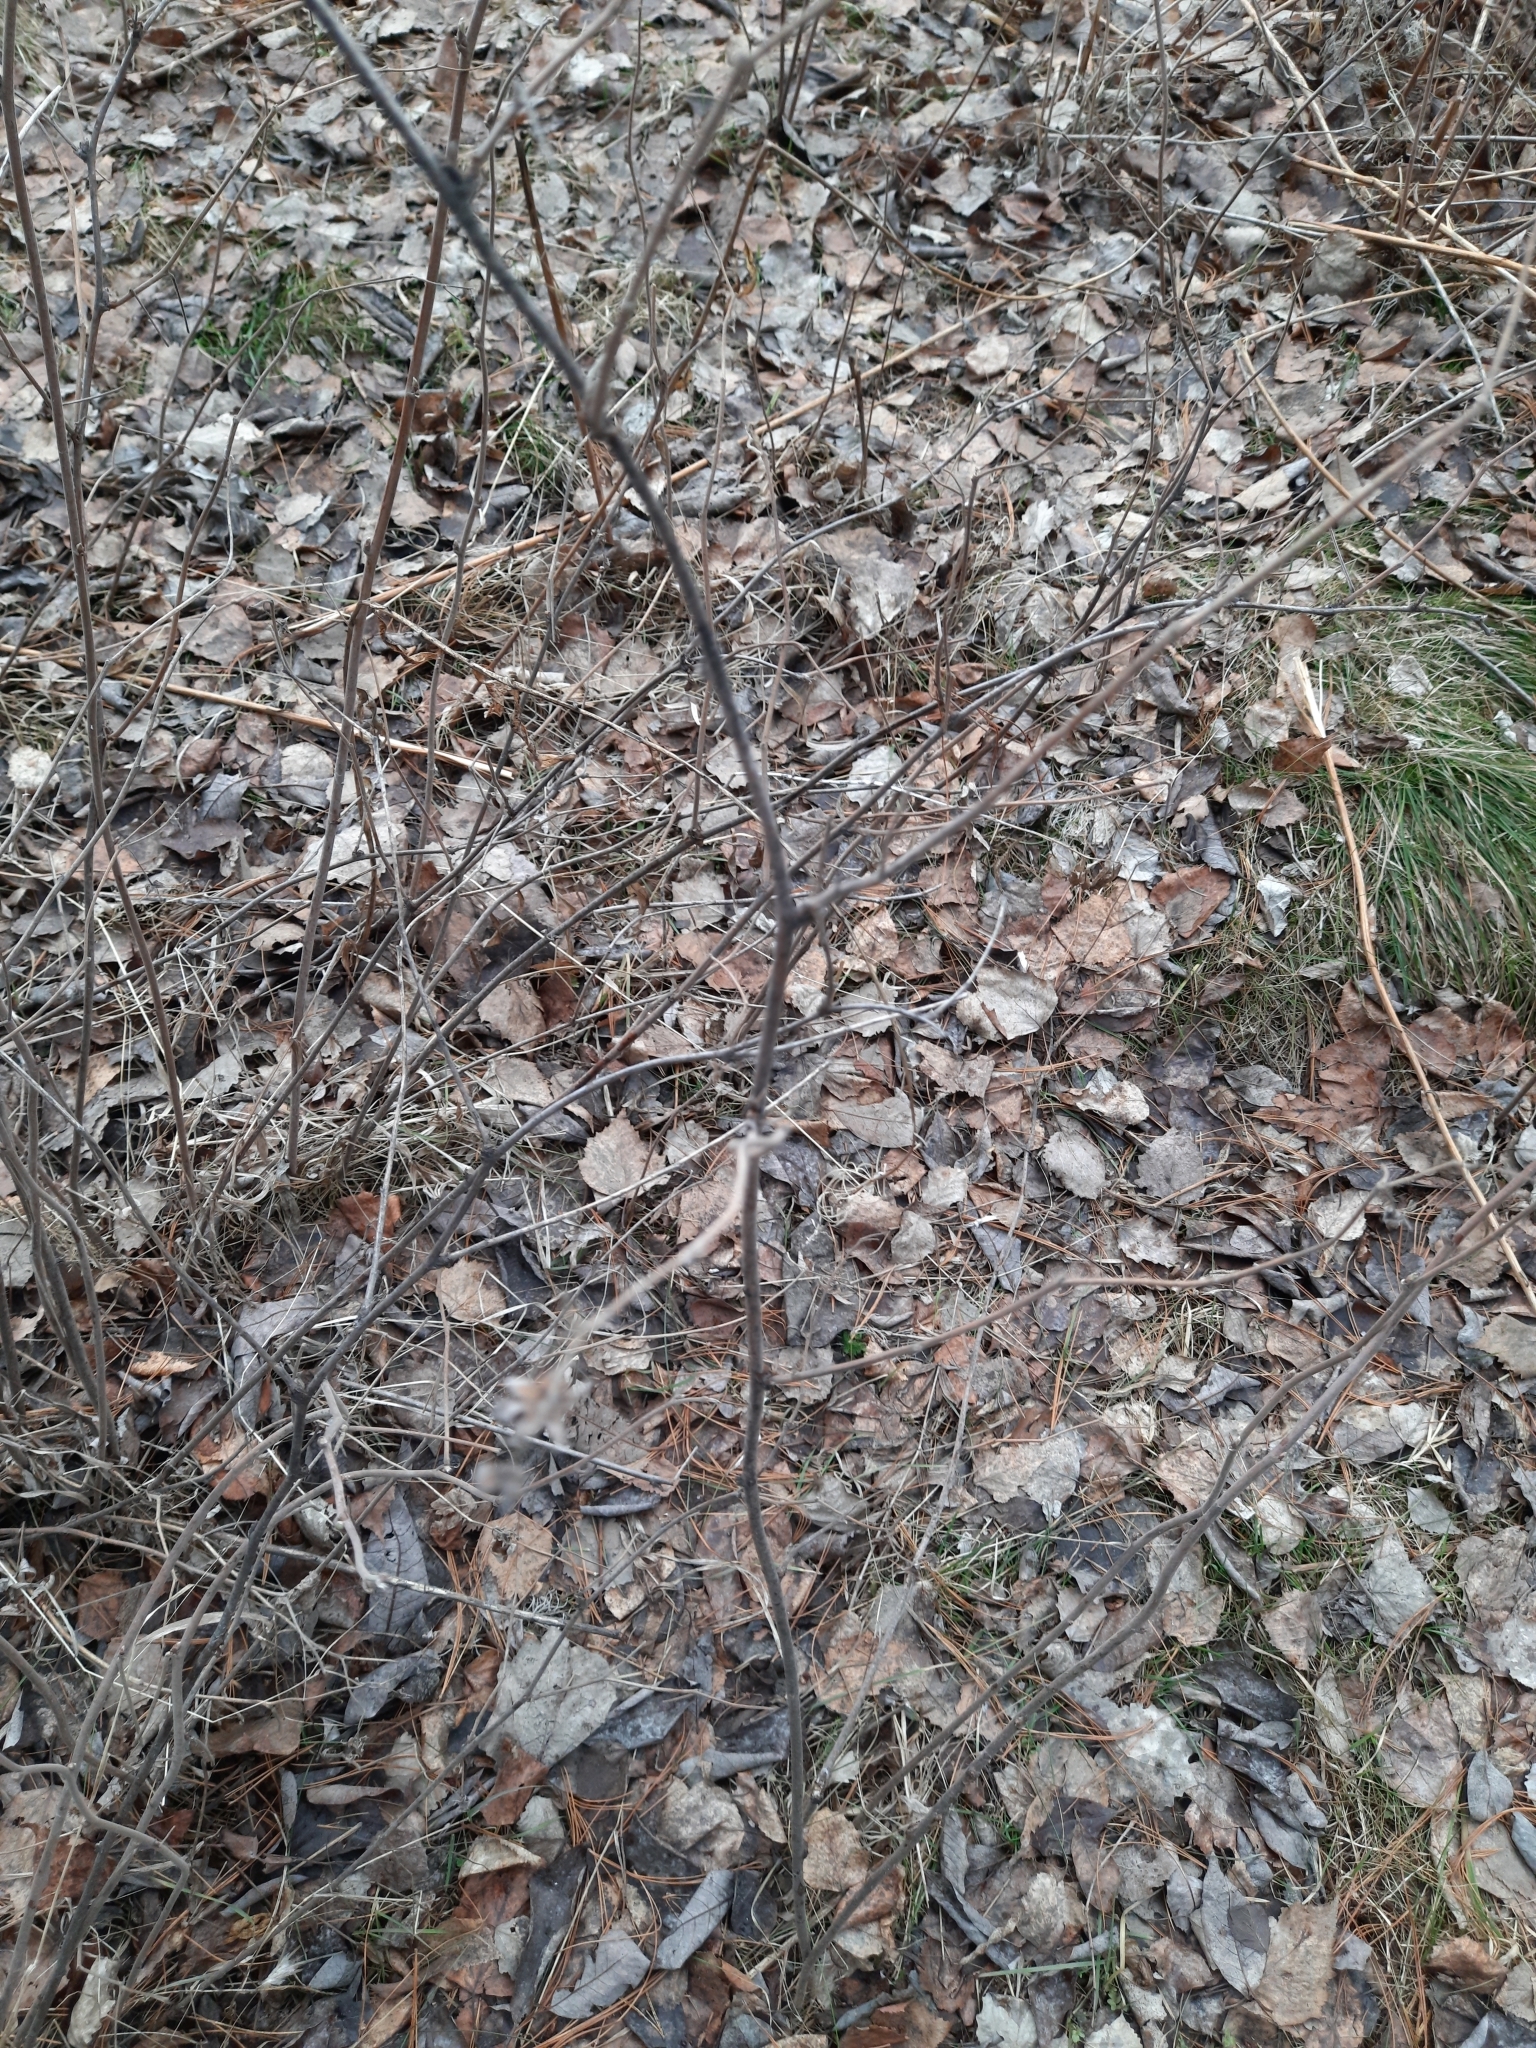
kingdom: Plantae
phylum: Tracheophyta
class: Magnoliopsida
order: Rosales
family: Rosaceae
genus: Rubus
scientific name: Rubus idaeus
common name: Raspberry
